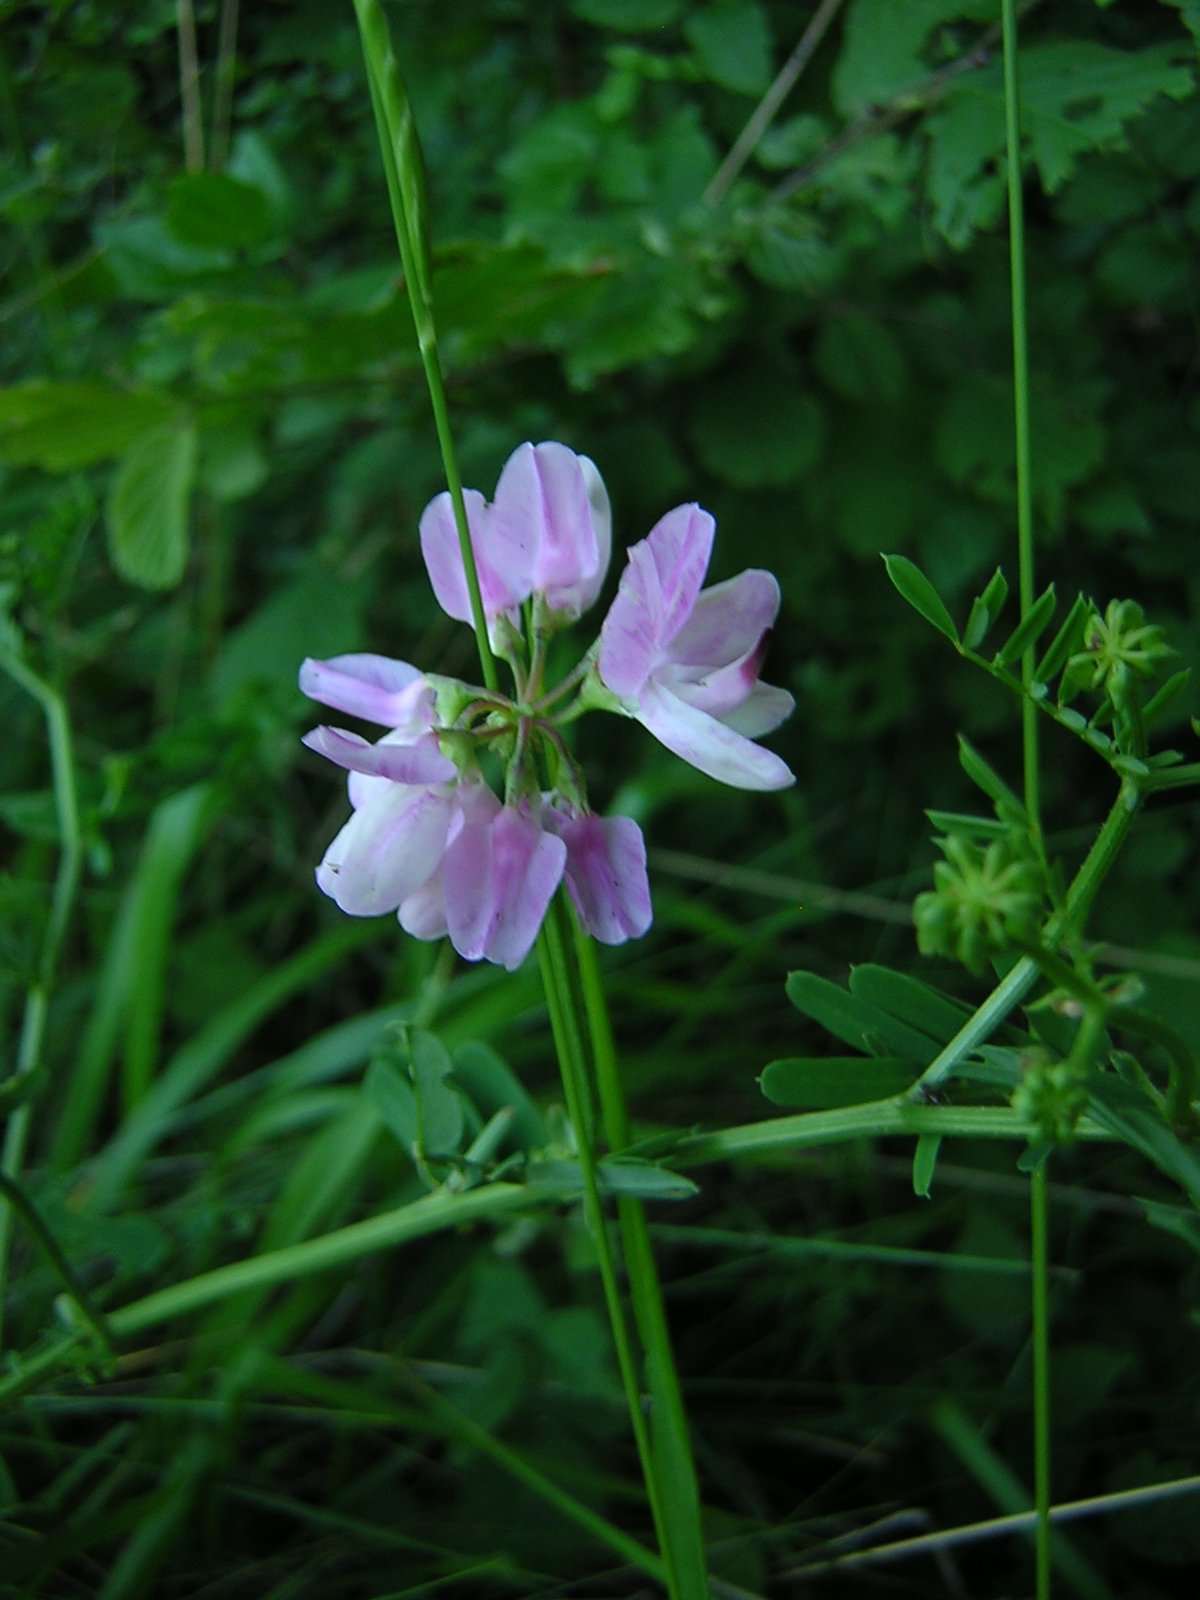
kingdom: Plantae
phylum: Tracheophyta
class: Magnoliopsida
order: Fabales
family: Fabaceae
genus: Coronilla
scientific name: Coronilla varia
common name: Crownvetch
